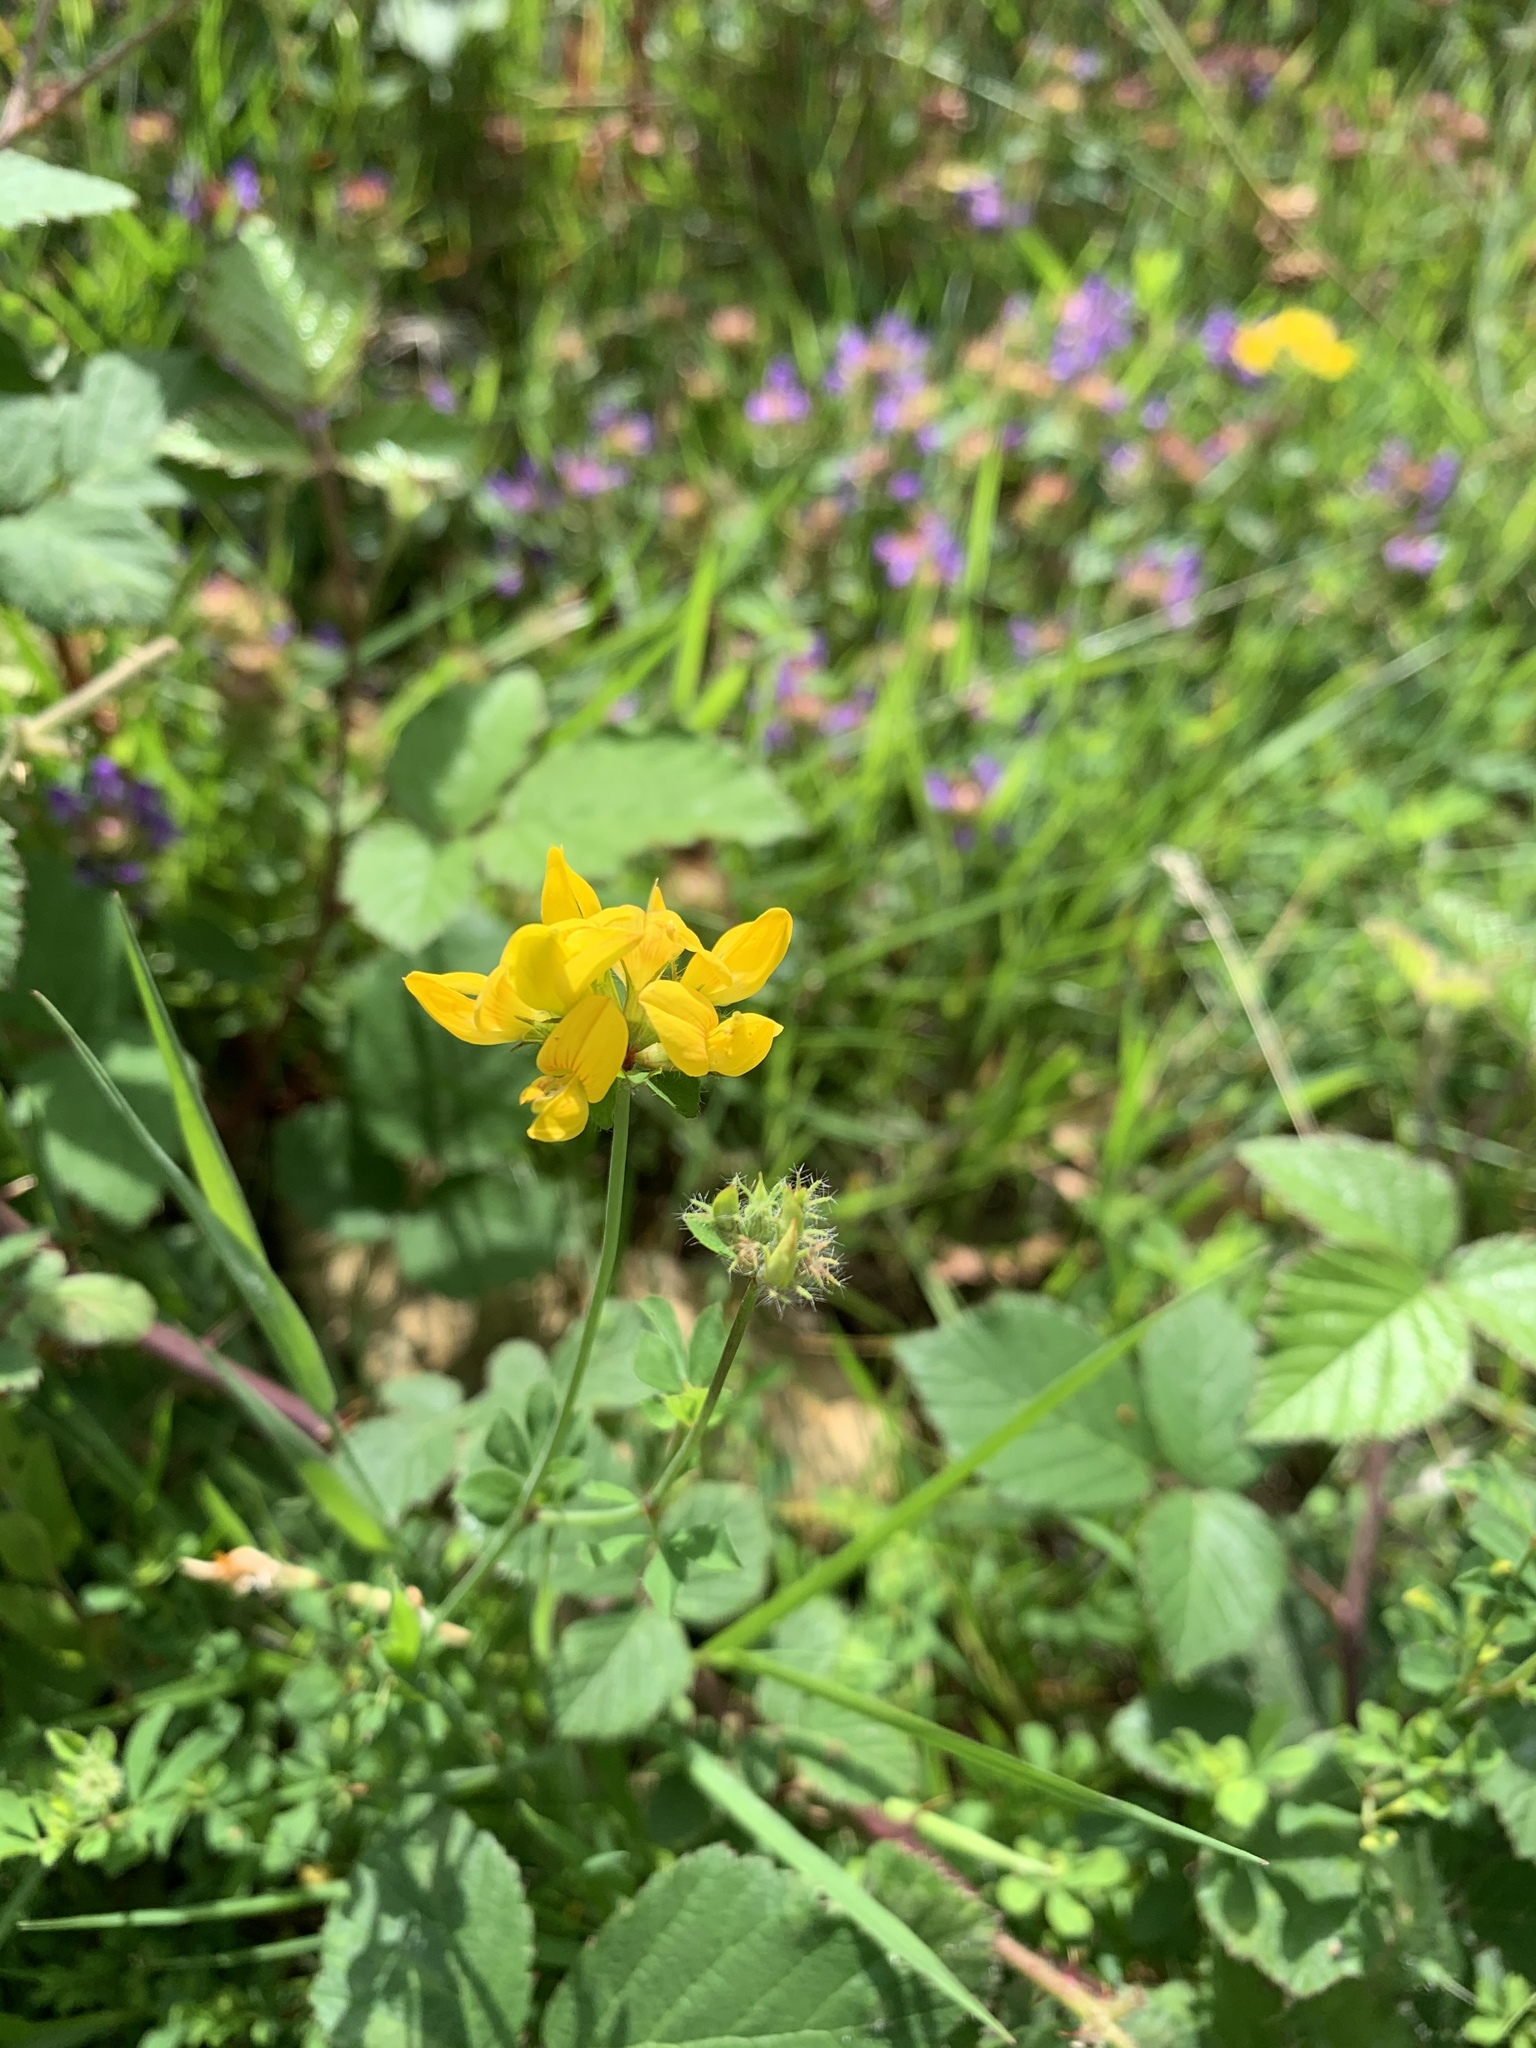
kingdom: Plantae
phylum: Tracheophyta
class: Magnoliopsida
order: Fabales
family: Fabaceae
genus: Lotus
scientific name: Lotus pedunculatus
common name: Greater birdsfoot-trefoil
